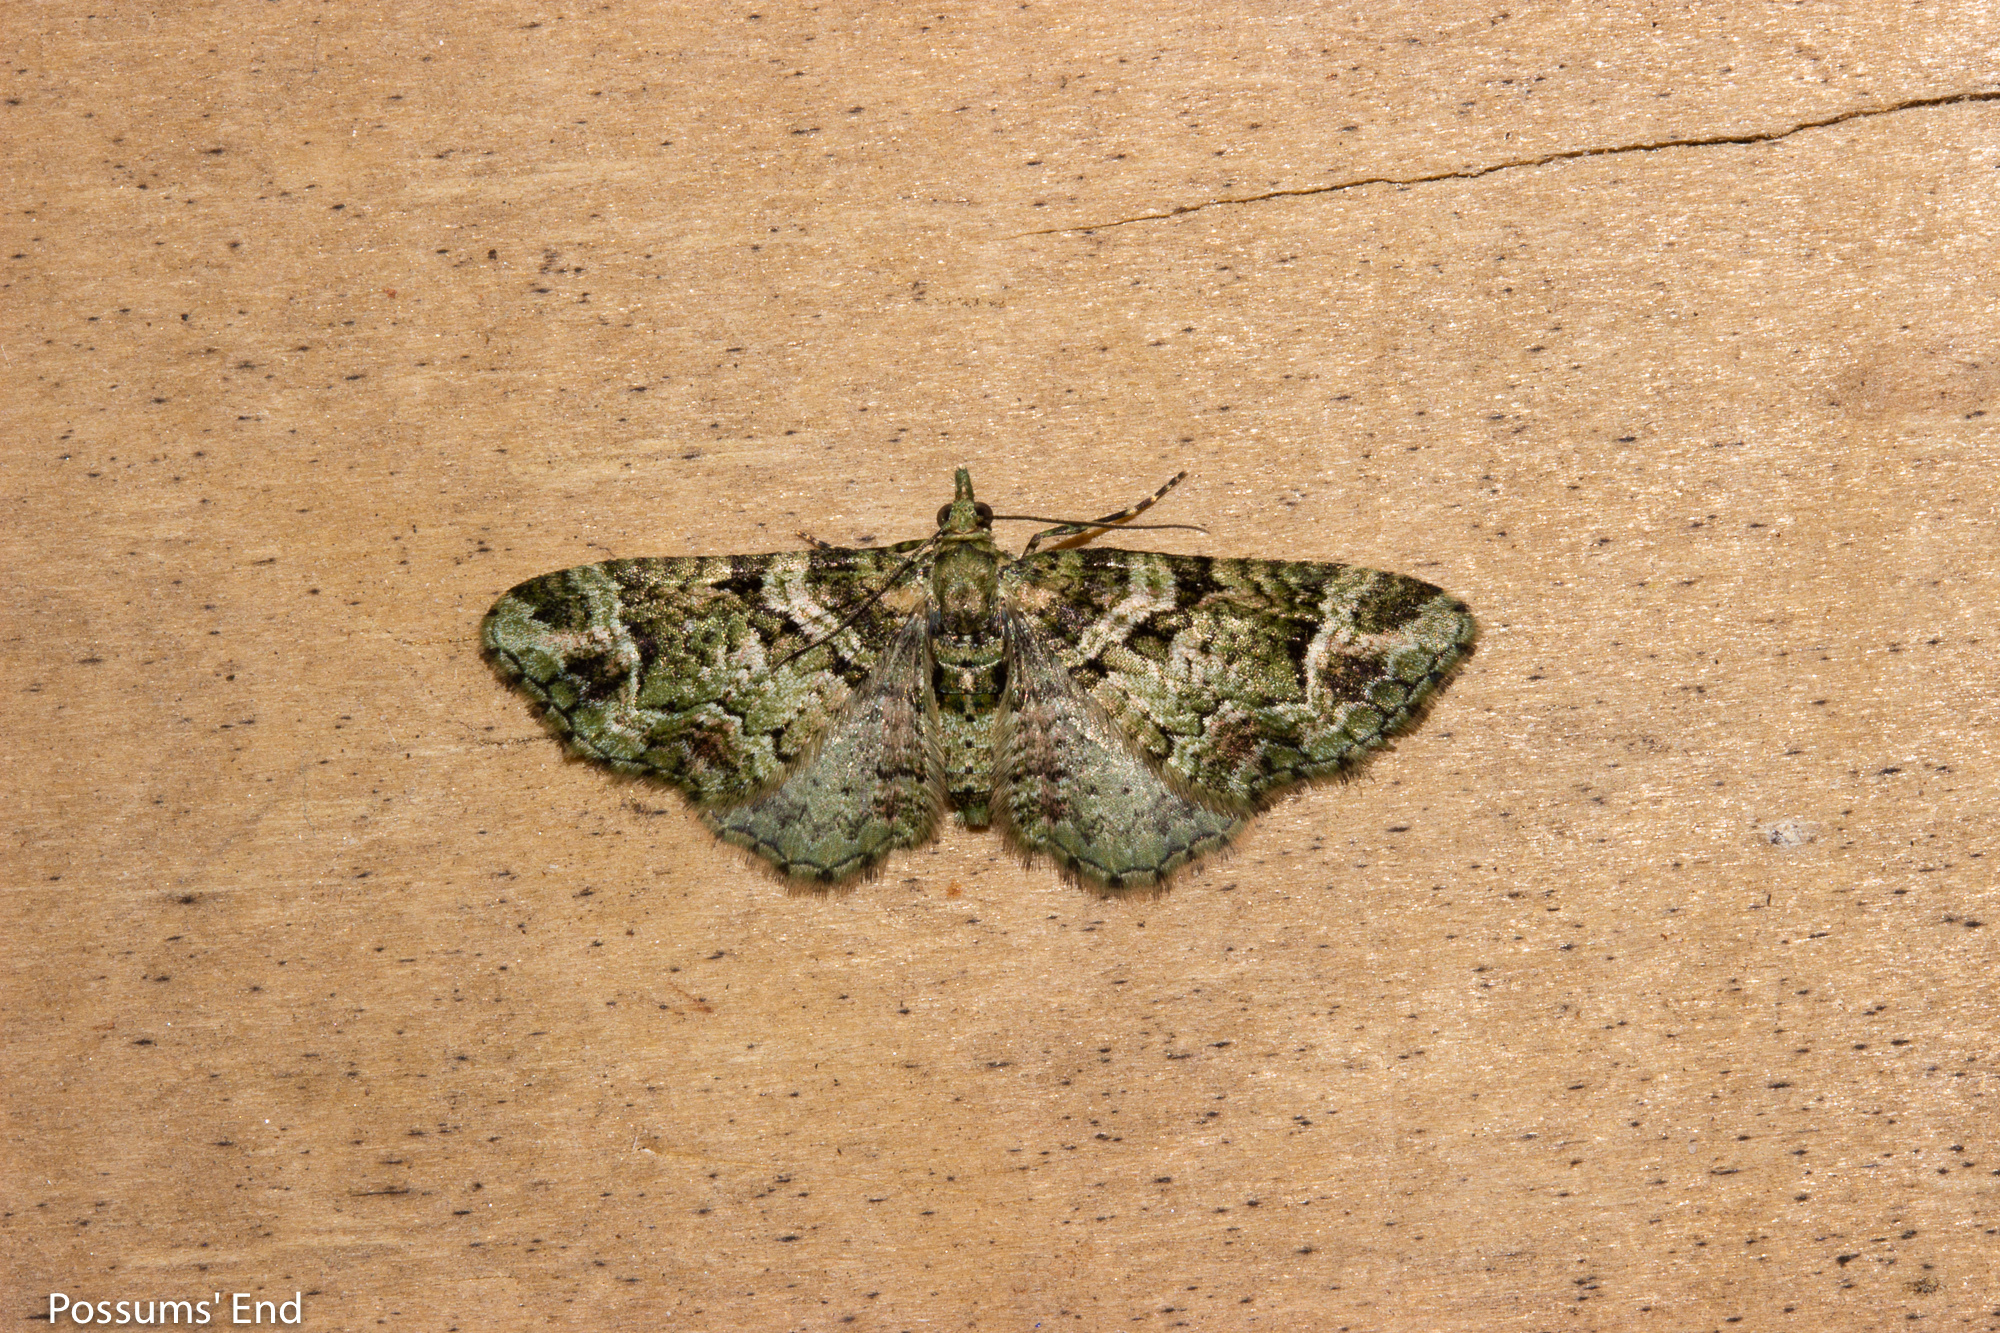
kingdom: Animalia
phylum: Arthropoda
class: Insecta
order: Lepidoptera
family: Geometridae
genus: Pasiphila
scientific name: Pasiphila urticae
